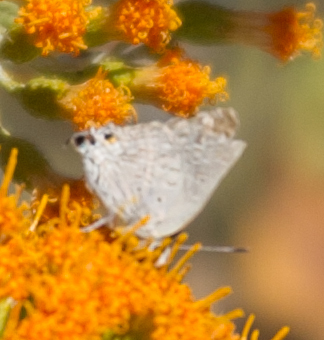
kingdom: Animalia
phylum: Arthropoda
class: Insecta
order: Lepidoptera
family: Lycaenidae
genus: Deudorix
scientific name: Deudorix antalus
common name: Brown playboy
